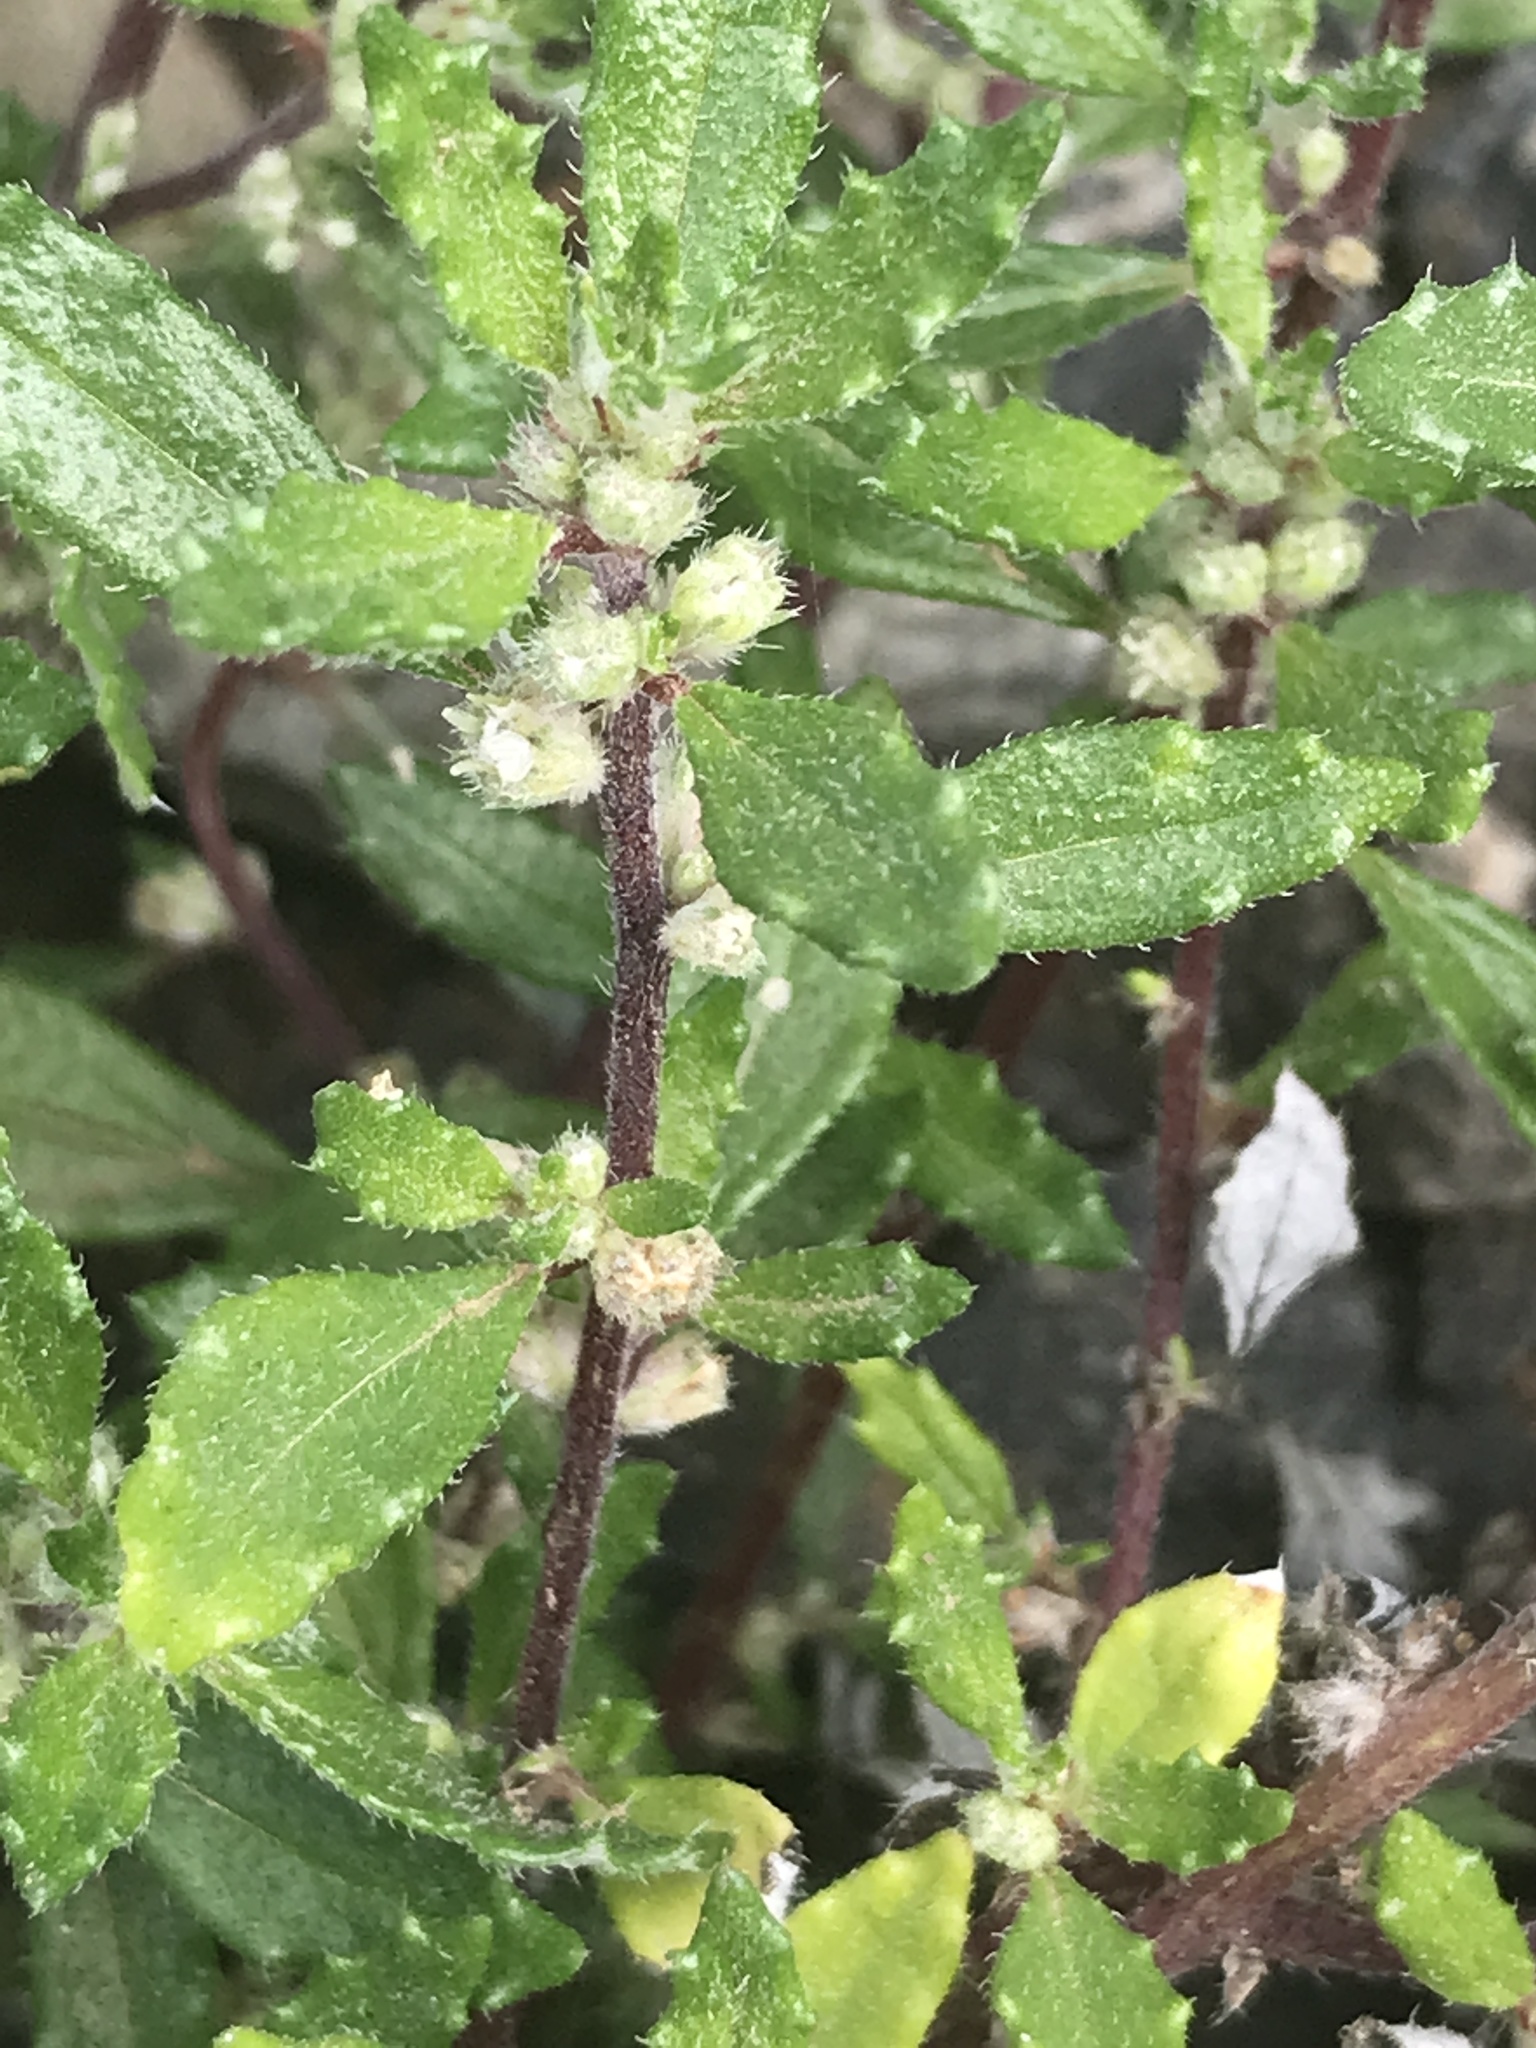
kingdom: Plantae
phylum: Tracheophyta
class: Magnoliopsida
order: Rosales
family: Urticaceae
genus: Forsskaolea
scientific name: Forsskaolea angustifolia
